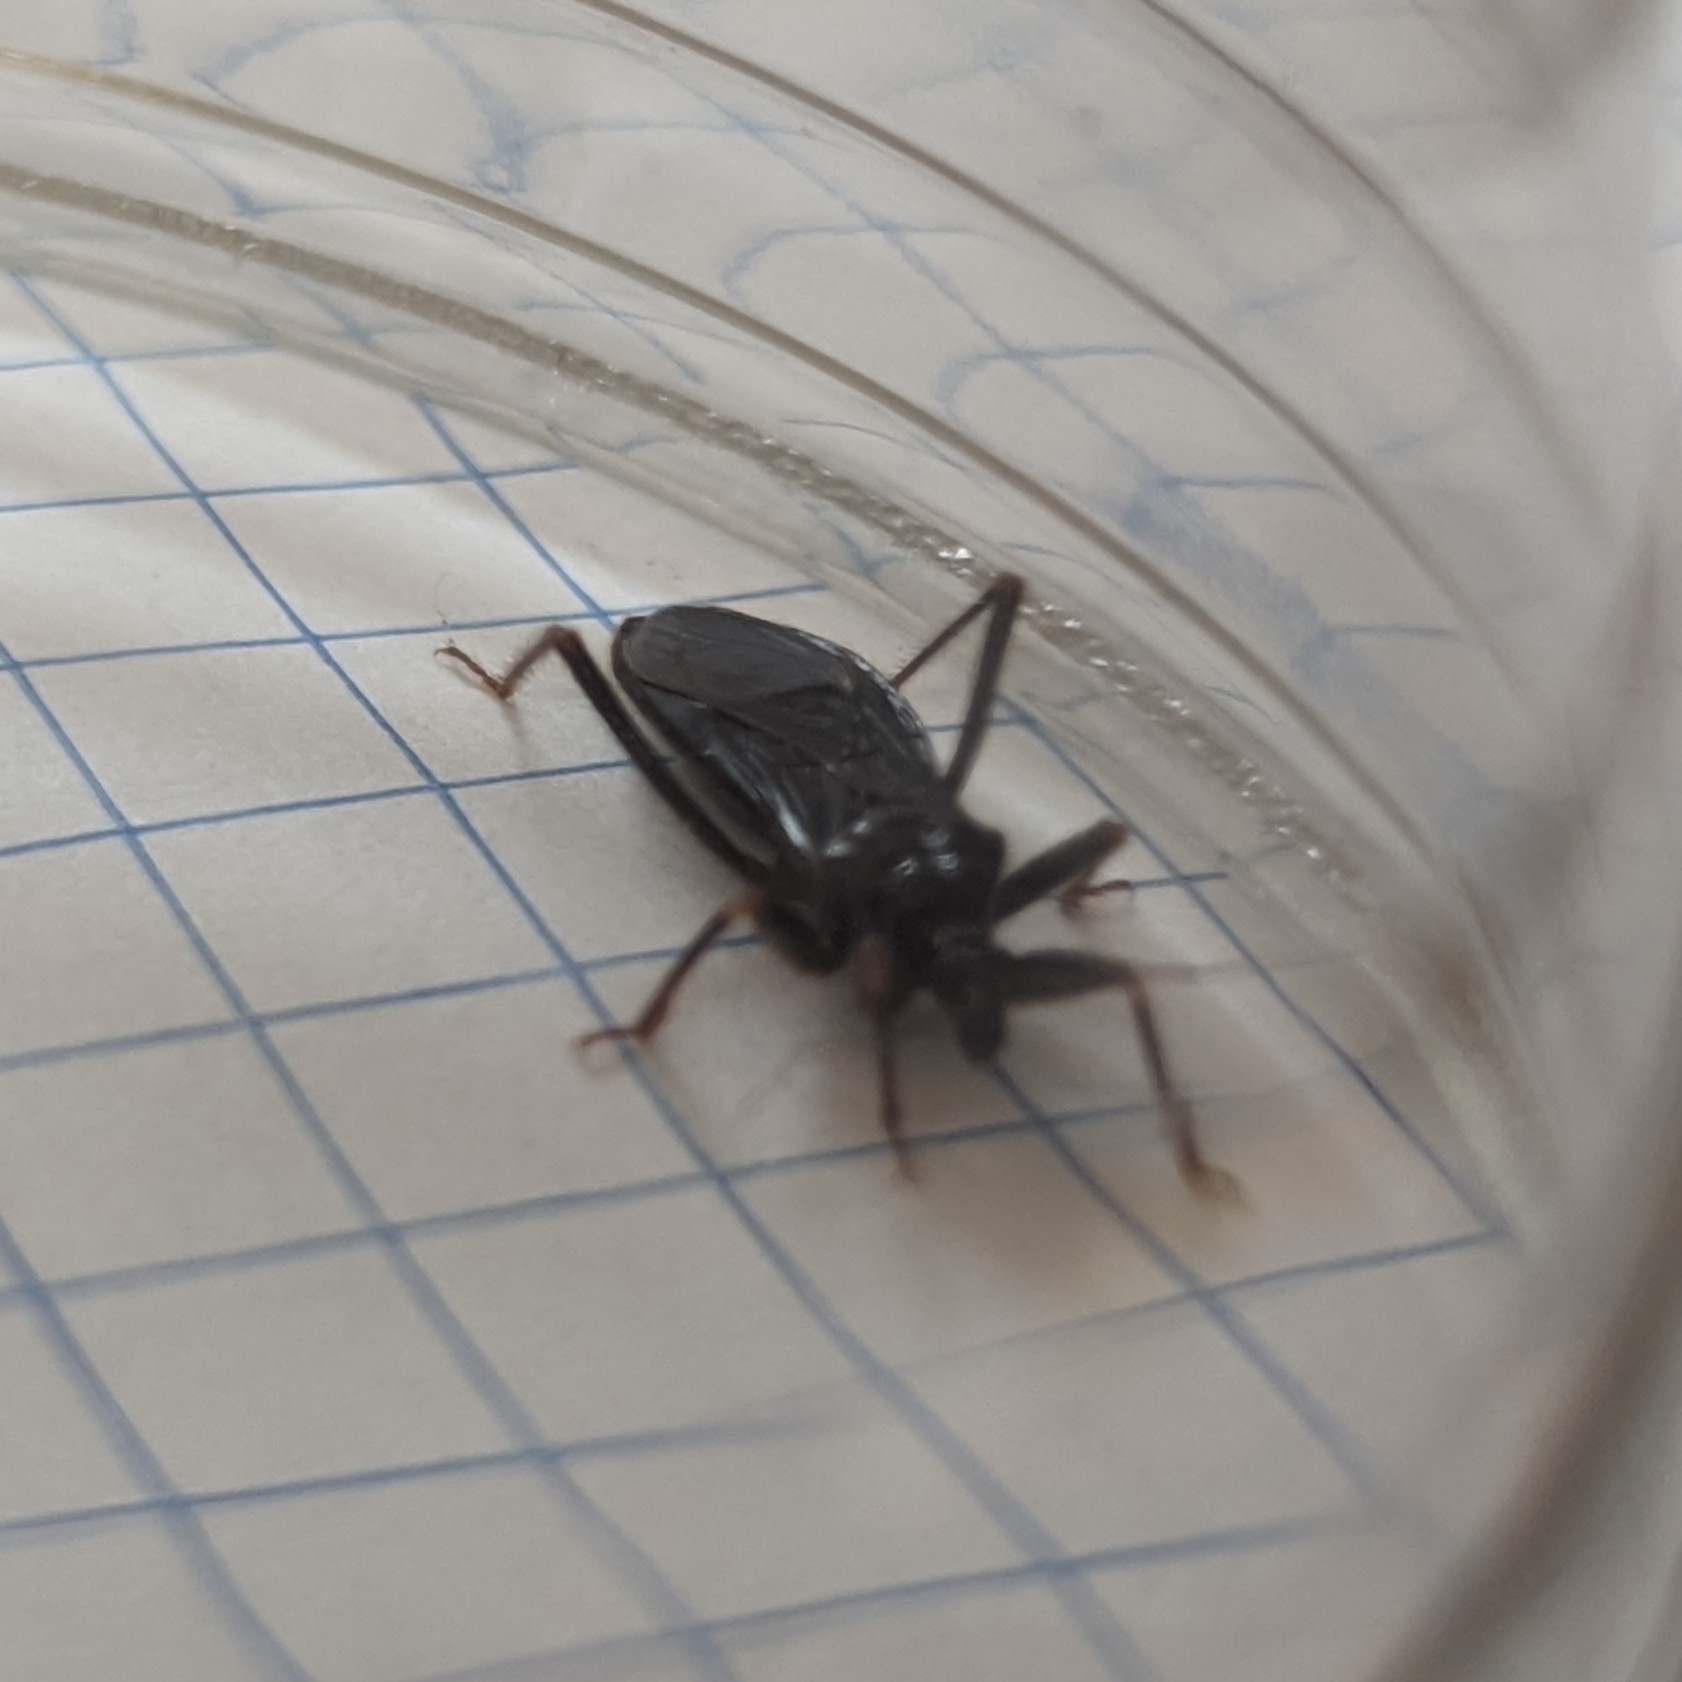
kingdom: Animalia
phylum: Arthropoda
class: Insecta
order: Hemiptera
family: Reduviidae
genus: Reduvius
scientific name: Reduvius personatus
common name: Masked hunter
